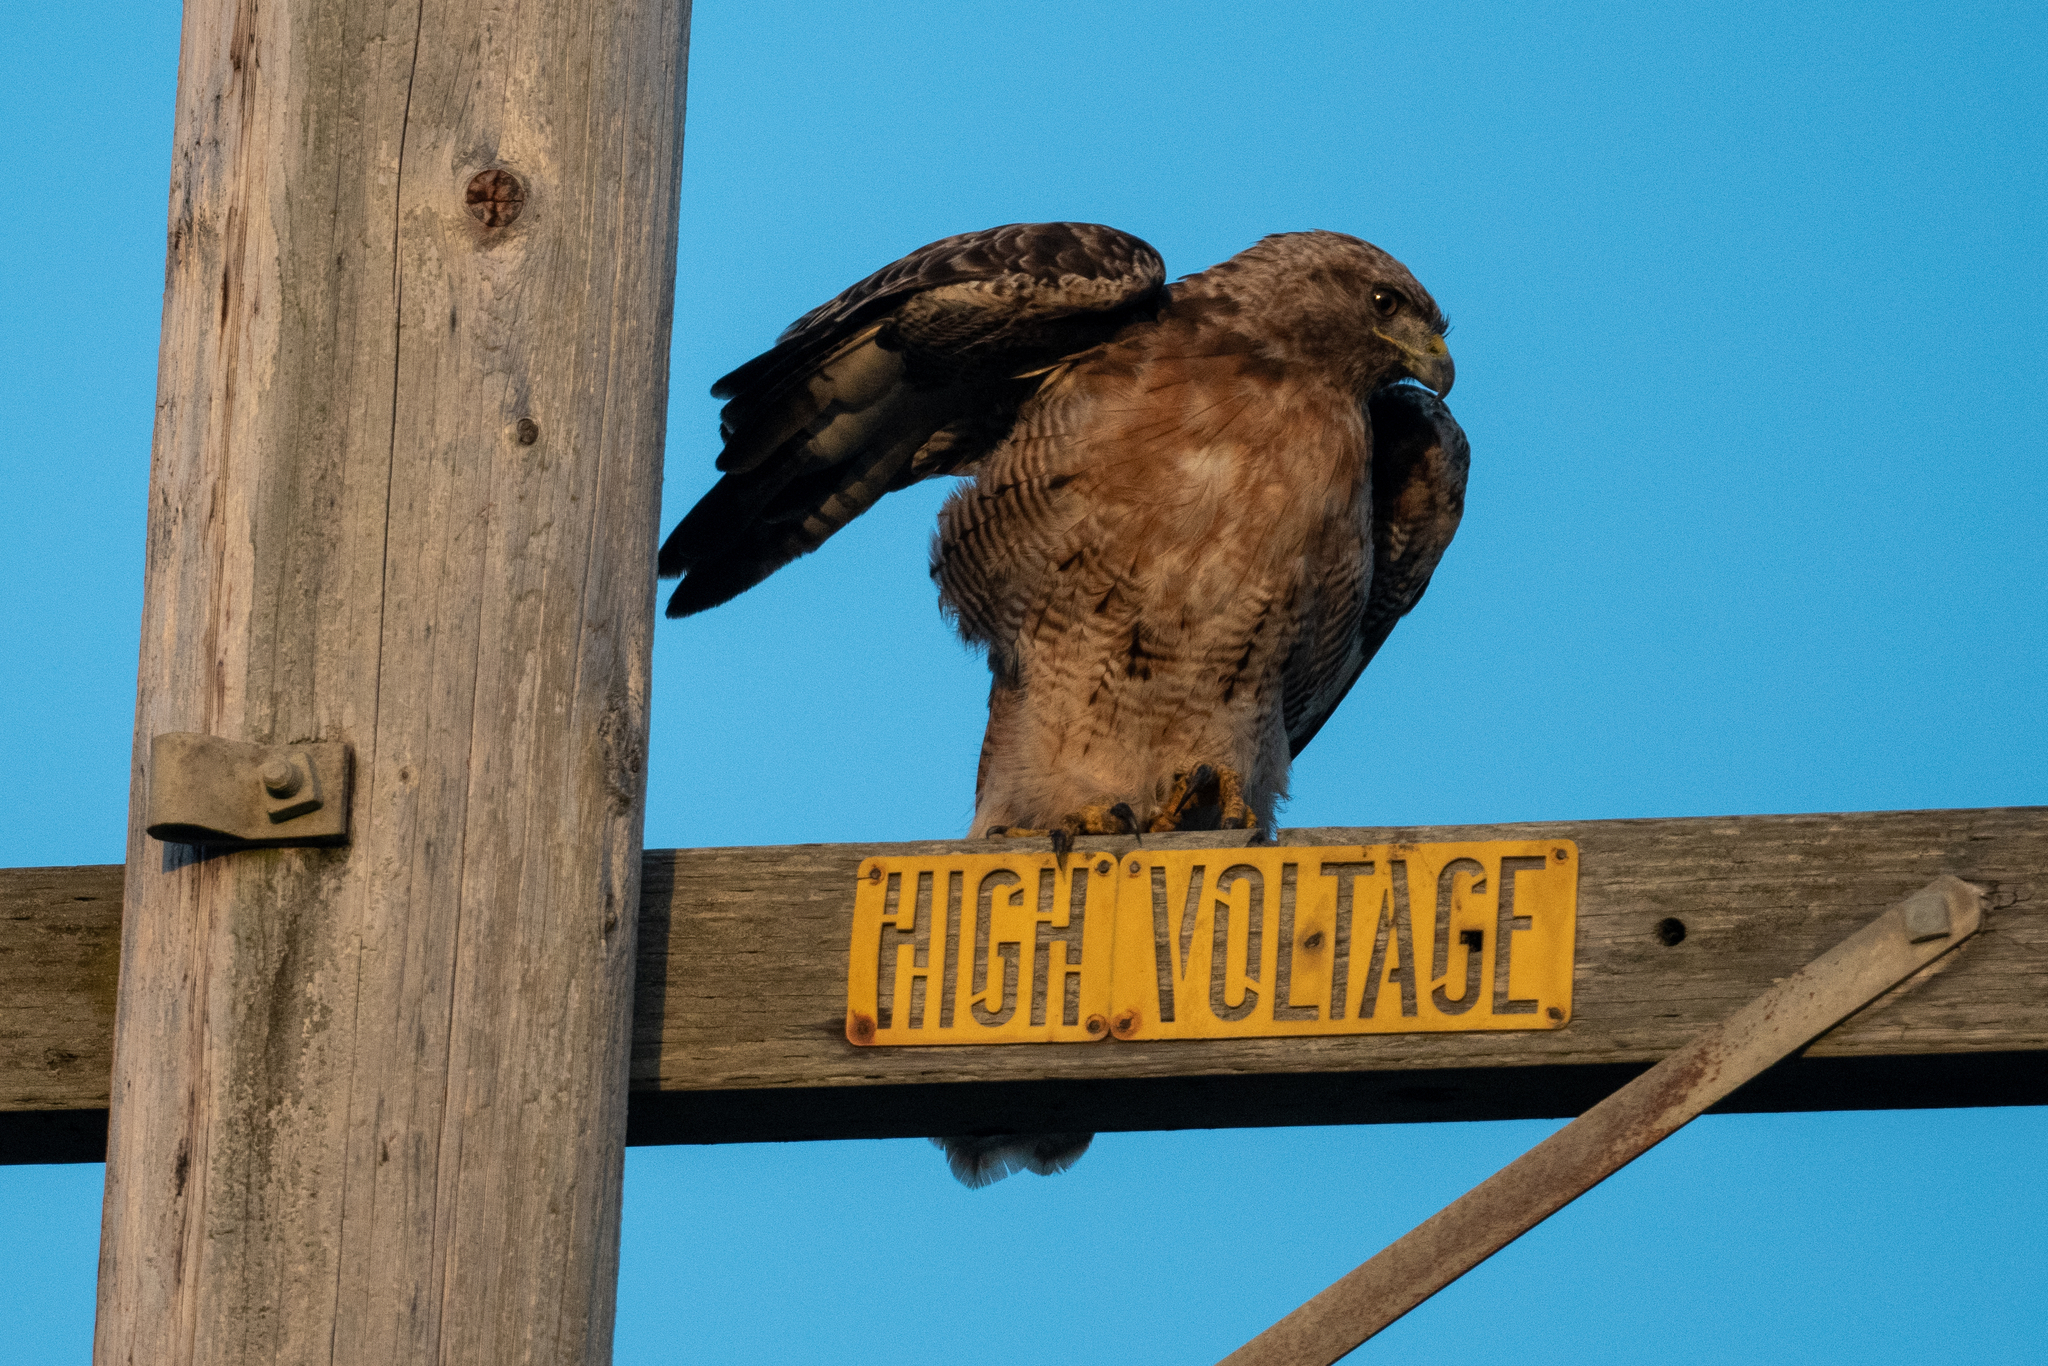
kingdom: Animalia
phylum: Chordata
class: Aves
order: Accipitriformes
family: Accipitridae
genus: Buteo
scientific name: Buteo jamaicensis
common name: Red-tailed hawk
